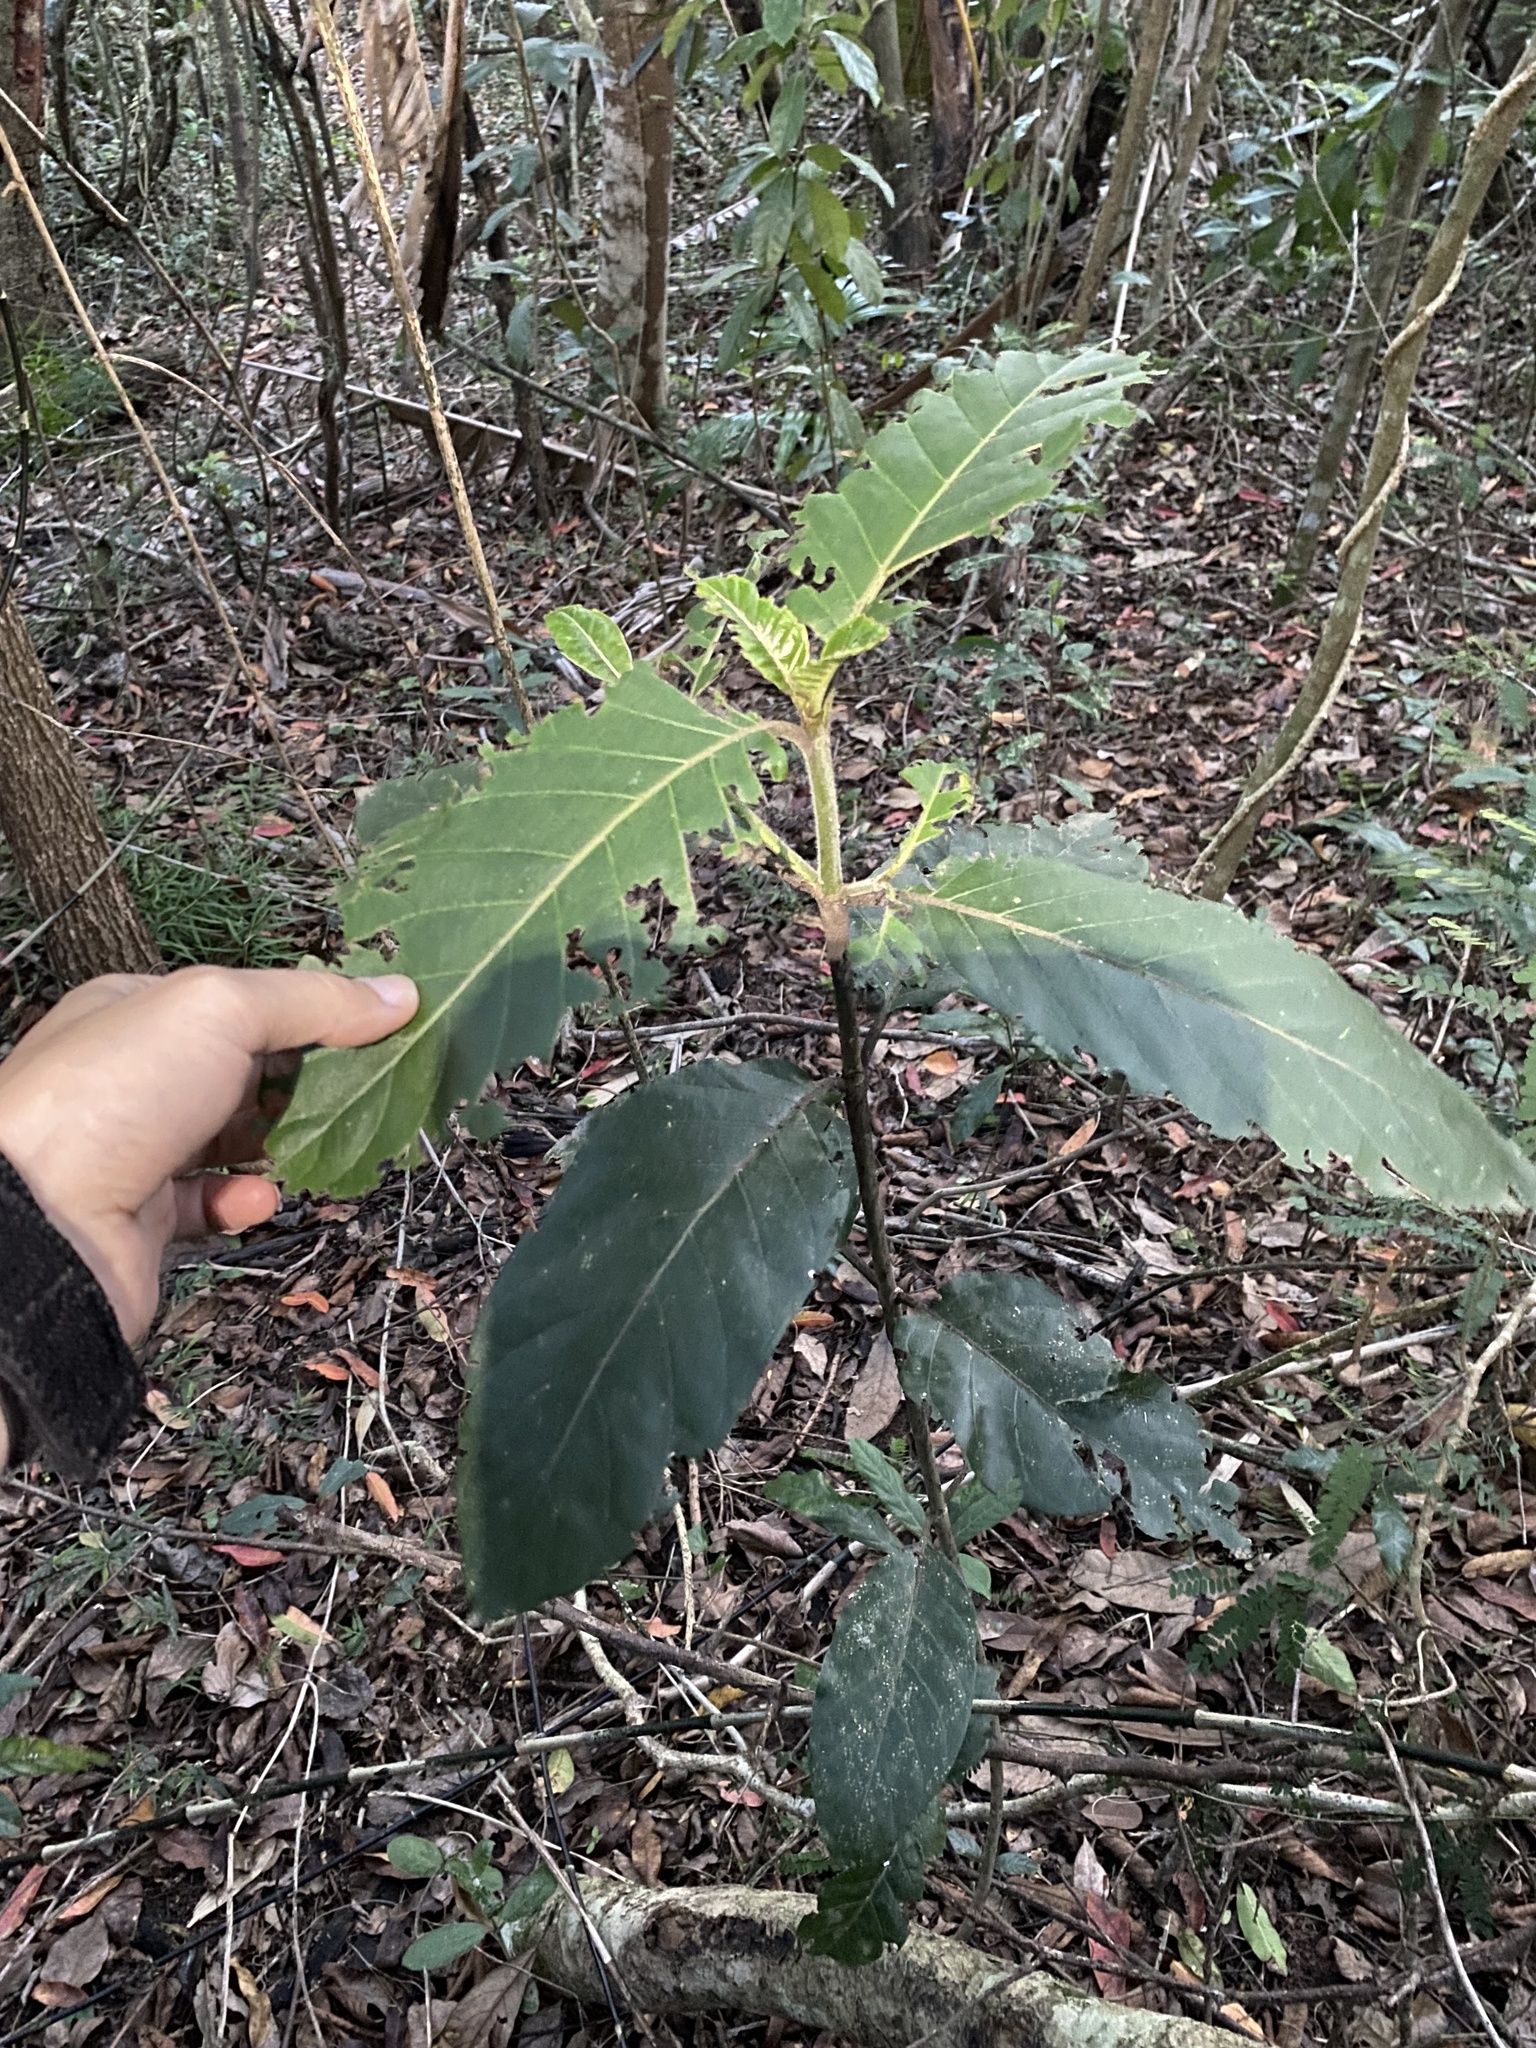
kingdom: Plantae
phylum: Tracheophyta
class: Magnoliopsida
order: Gentianales
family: Rubiaceae
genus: Burchellia
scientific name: Burchellia bubalina
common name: Wild pomegranate
